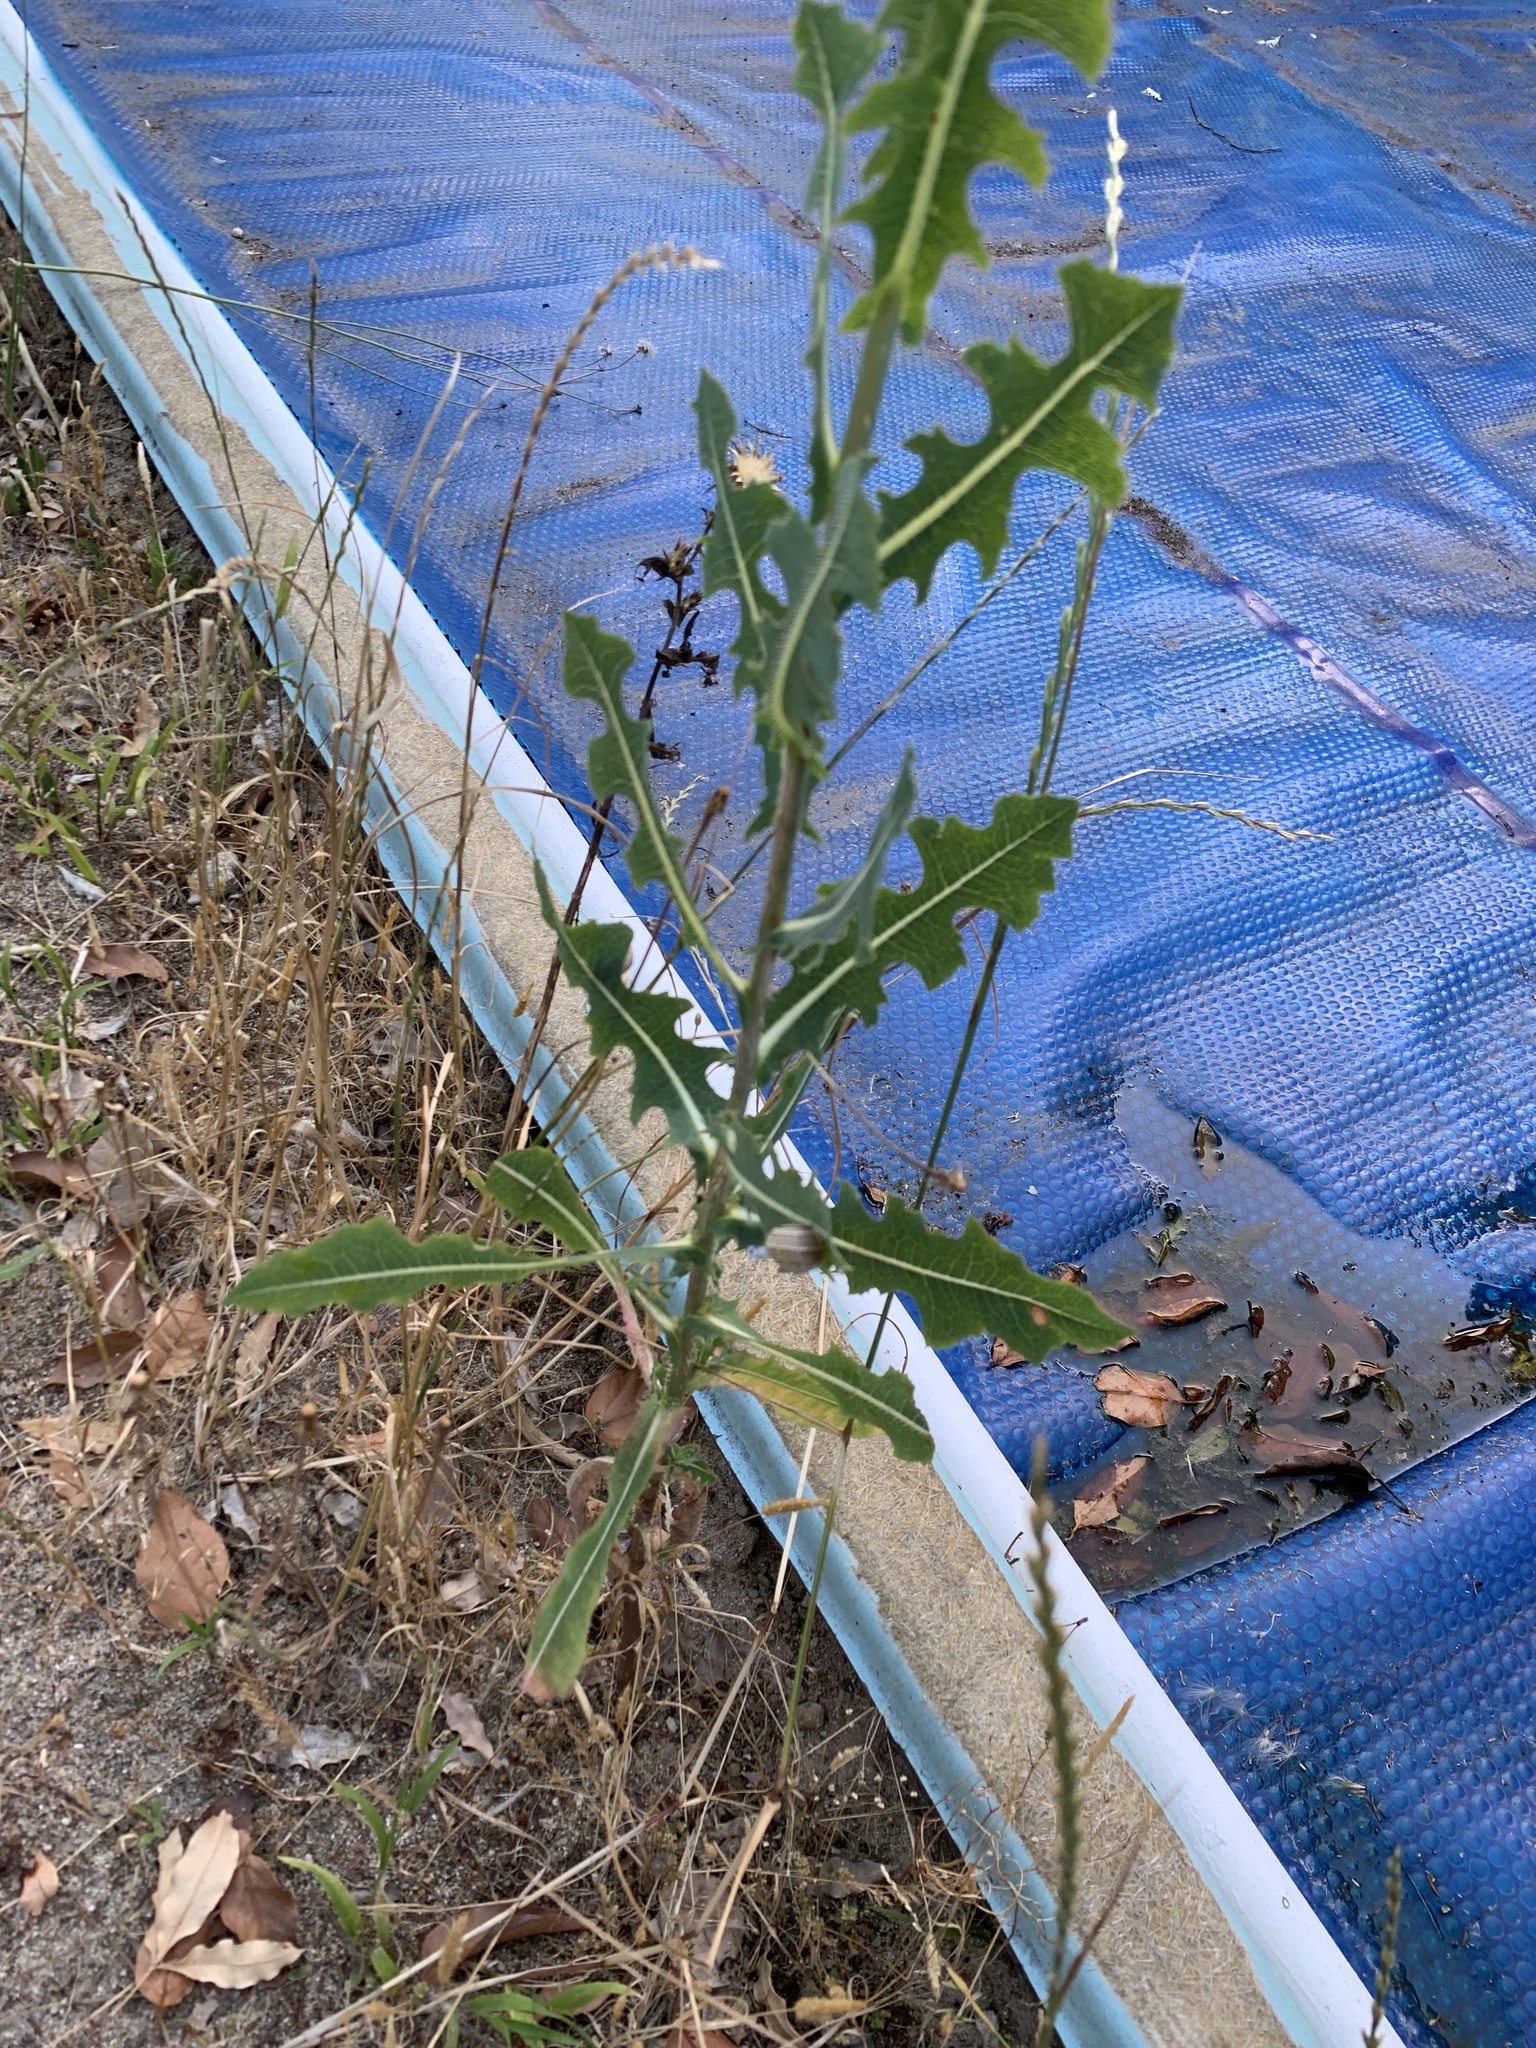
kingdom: Plantae
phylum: Tracheophyta
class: Magnoliopsida
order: Asterales
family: Asteraceae
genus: Lactuca
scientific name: Lactuca serriola
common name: Prickly lettuce
